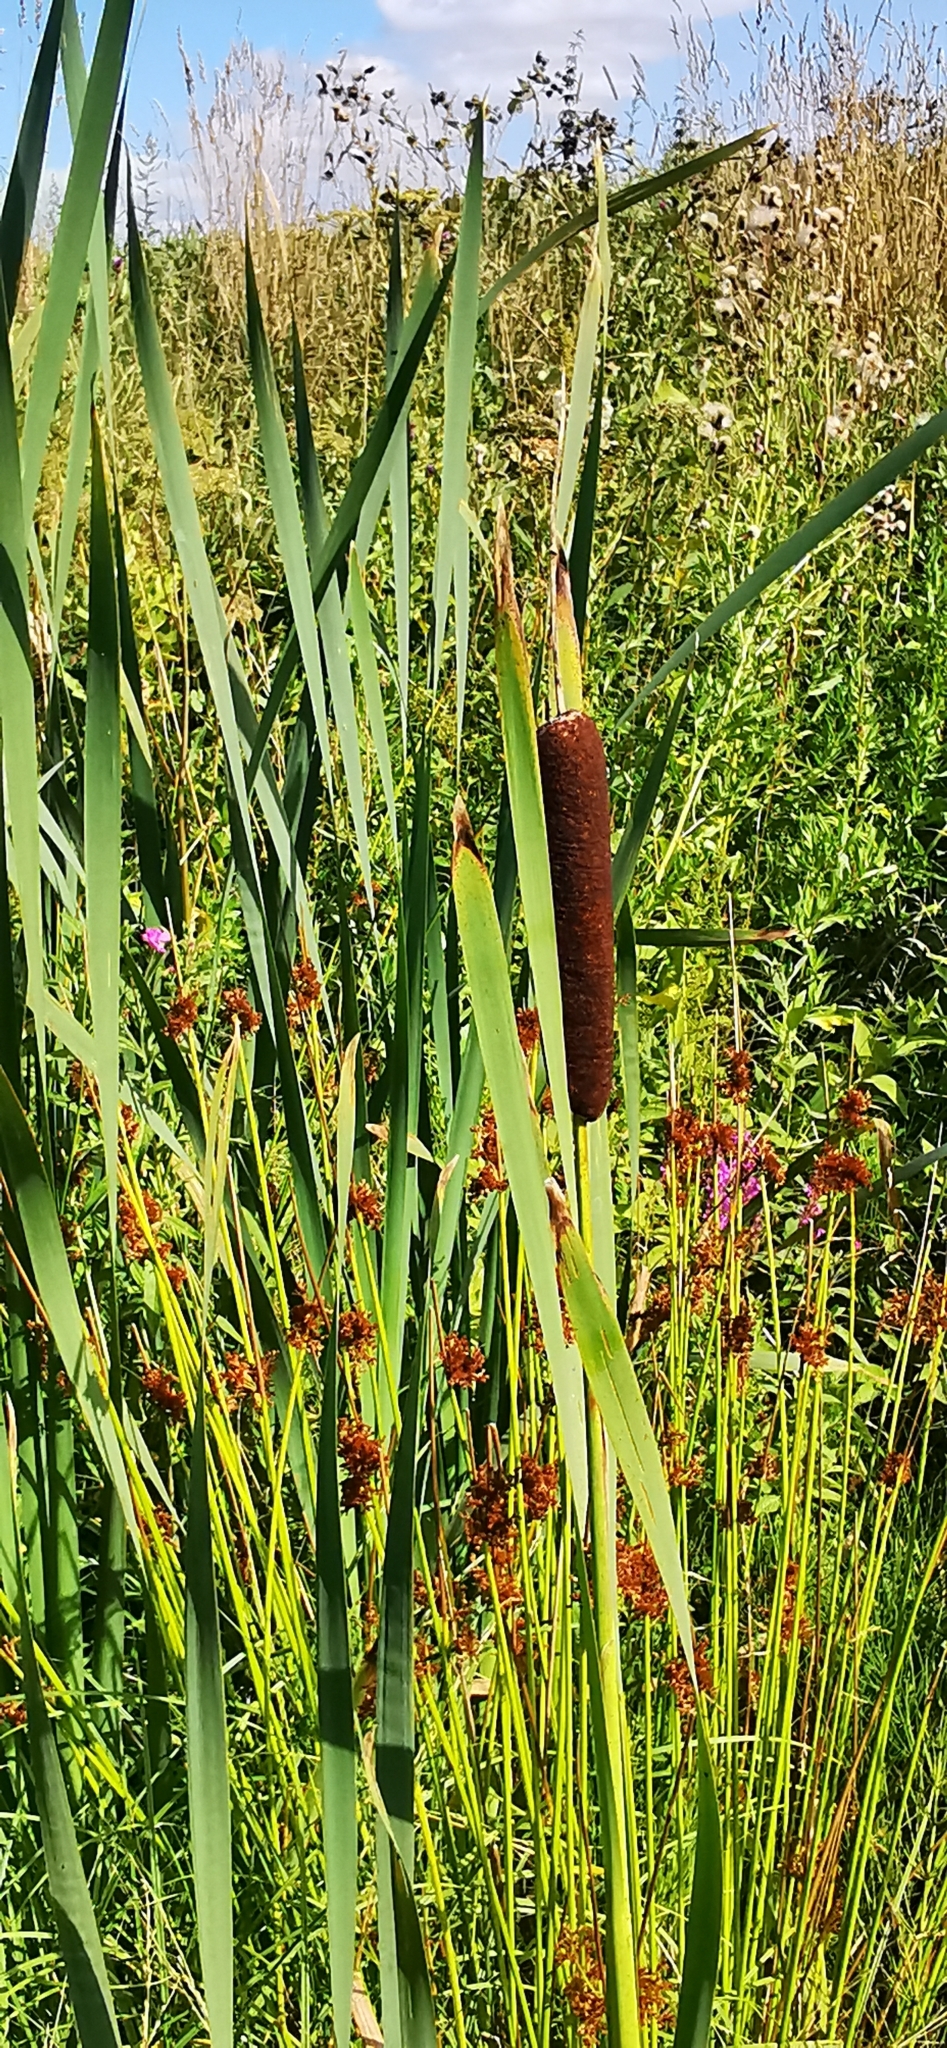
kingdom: Plantae
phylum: Tracheophyta
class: Liliopsida
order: Poales
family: Typhaceae
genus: Typha
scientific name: Typha latifolia
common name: Broadleaf cattail
